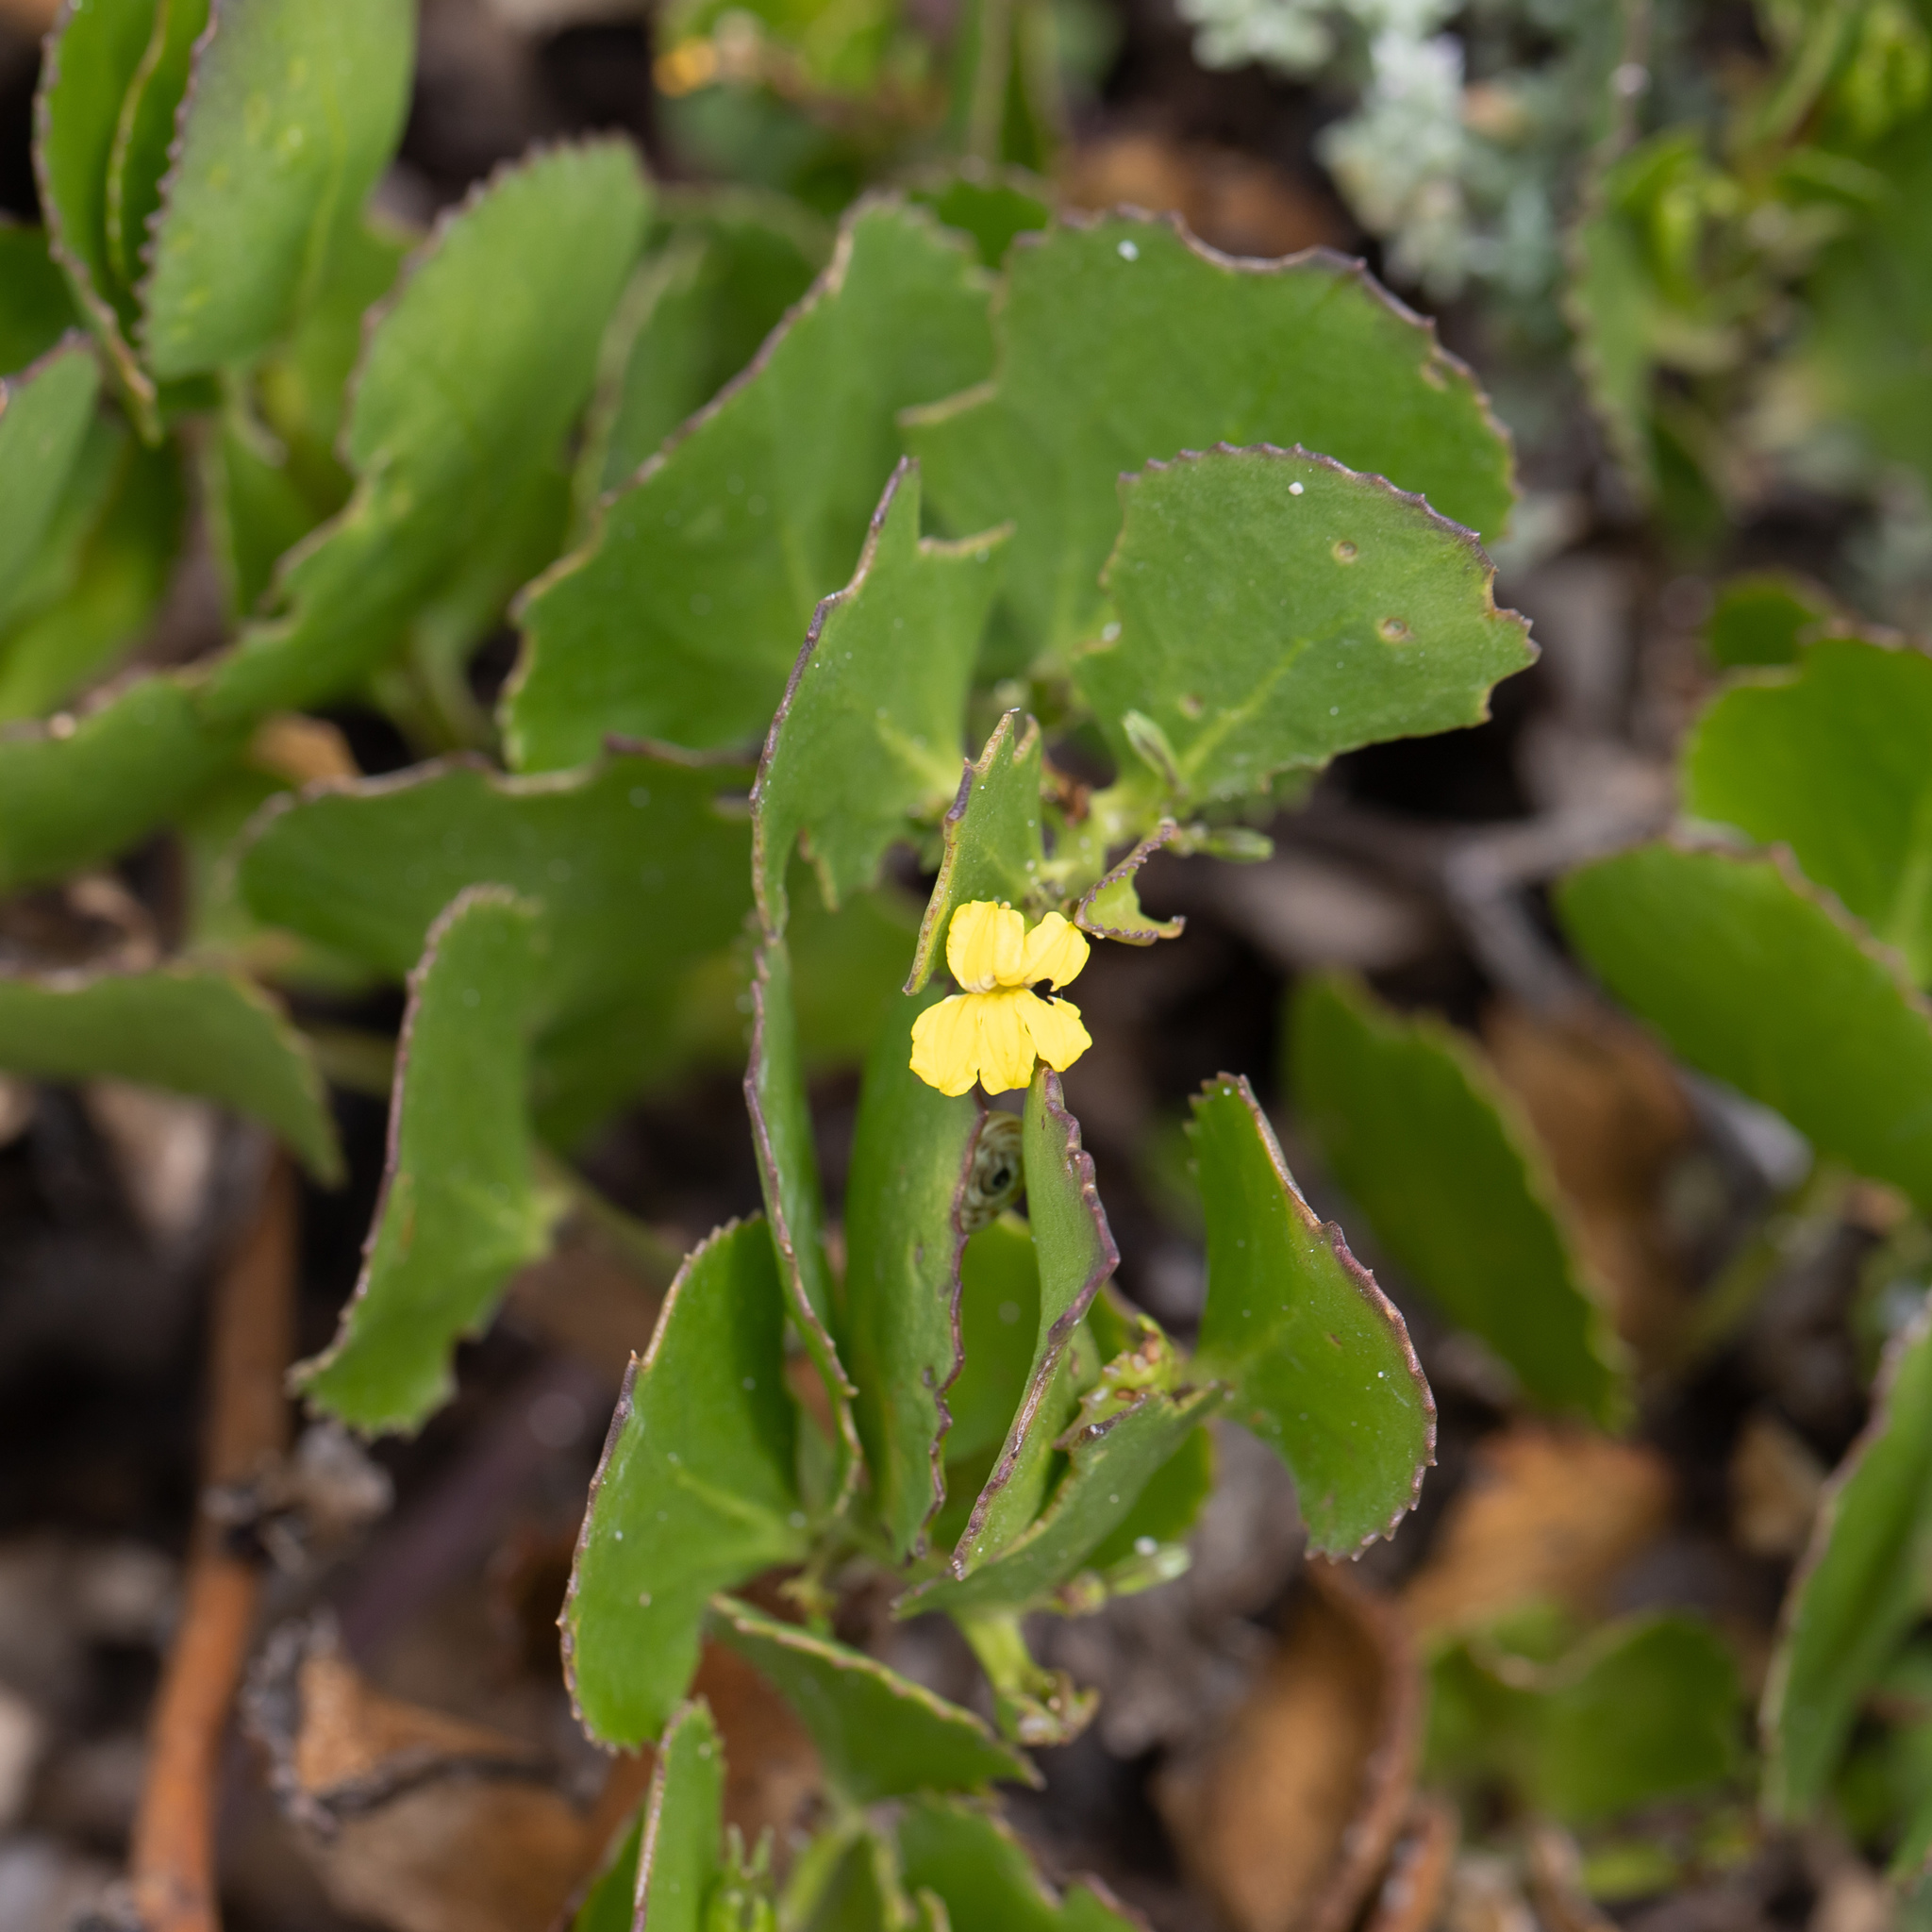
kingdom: Plantae
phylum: Tracheophyta
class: Magnoliopsida
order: Asterales
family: Goodeniaceae
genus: Goodenia
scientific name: Goodenia varia
